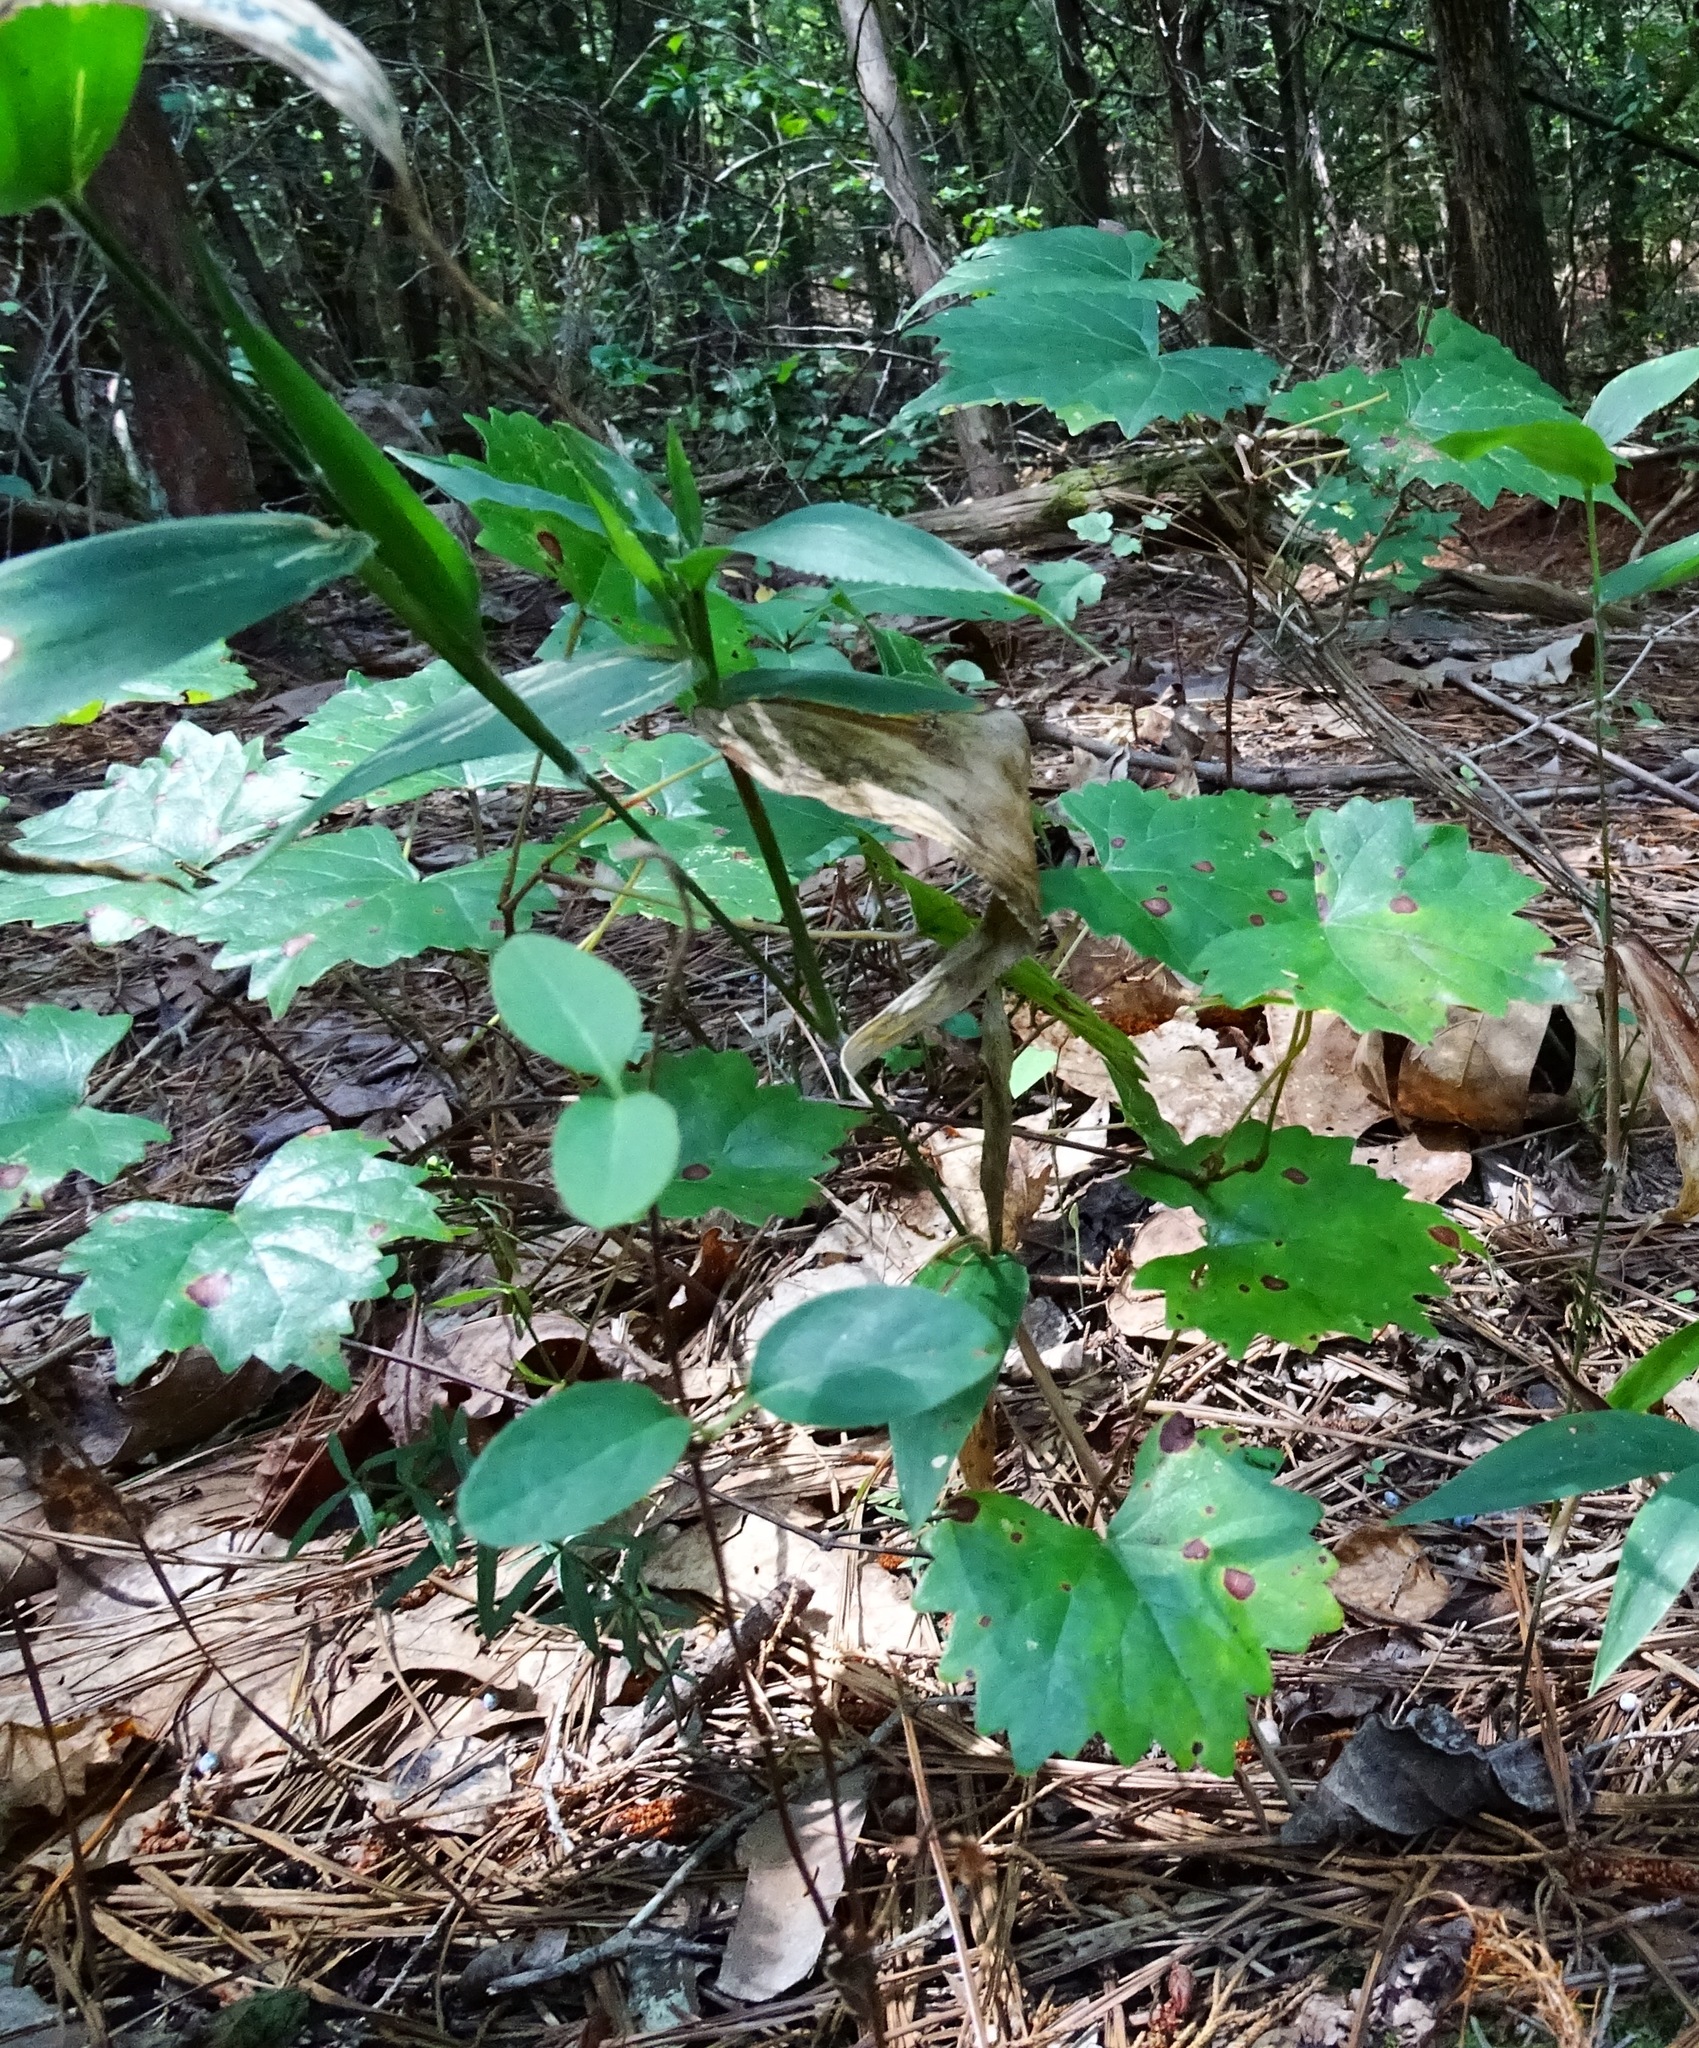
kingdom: Plantae
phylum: Tracheophyta
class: Magnoliopsida
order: Vitales
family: Vitaceae
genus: Vitis
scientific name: Vitis rotundifolia
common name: Muscadine grape
